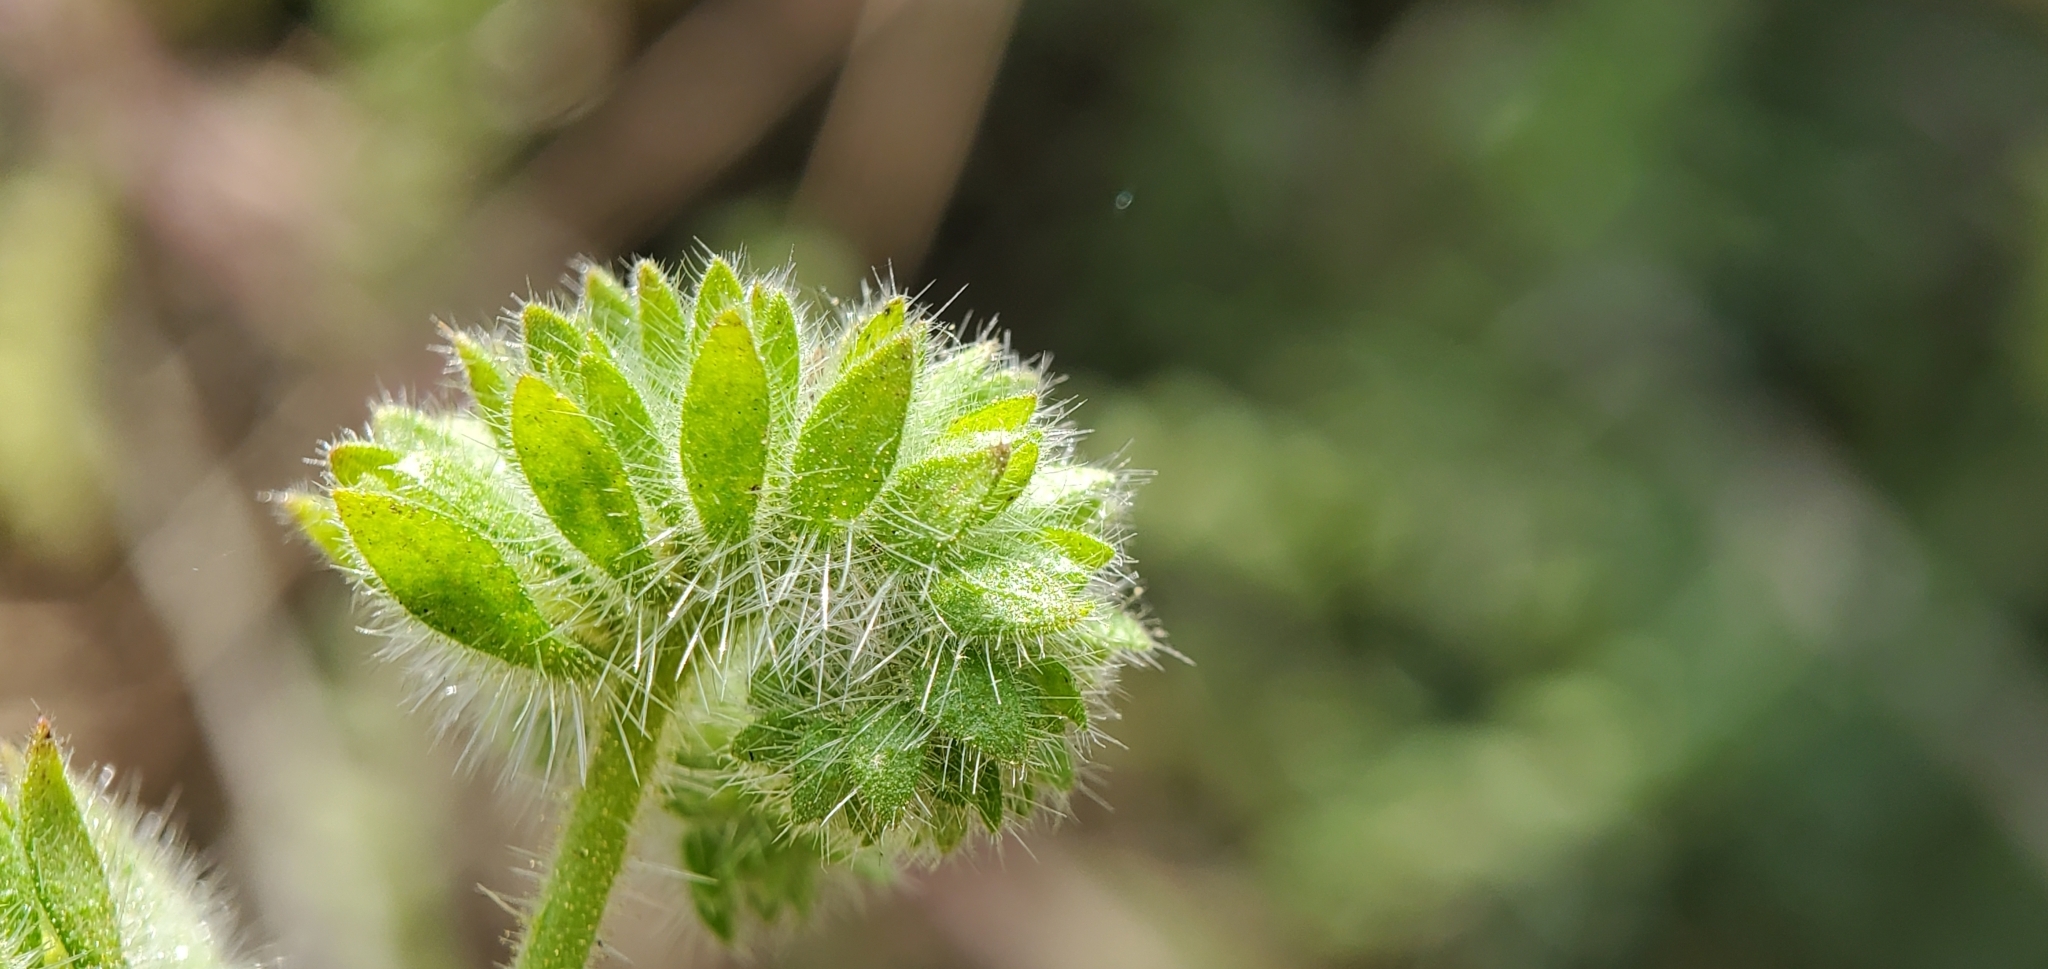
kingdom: Plantae
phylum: Tracheophyta
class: Magnoliopsida
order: Boraginales
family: Hydrophyllaceae
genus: Phacelia
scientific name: Phacelia ramosissima
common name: Branching phacelia
